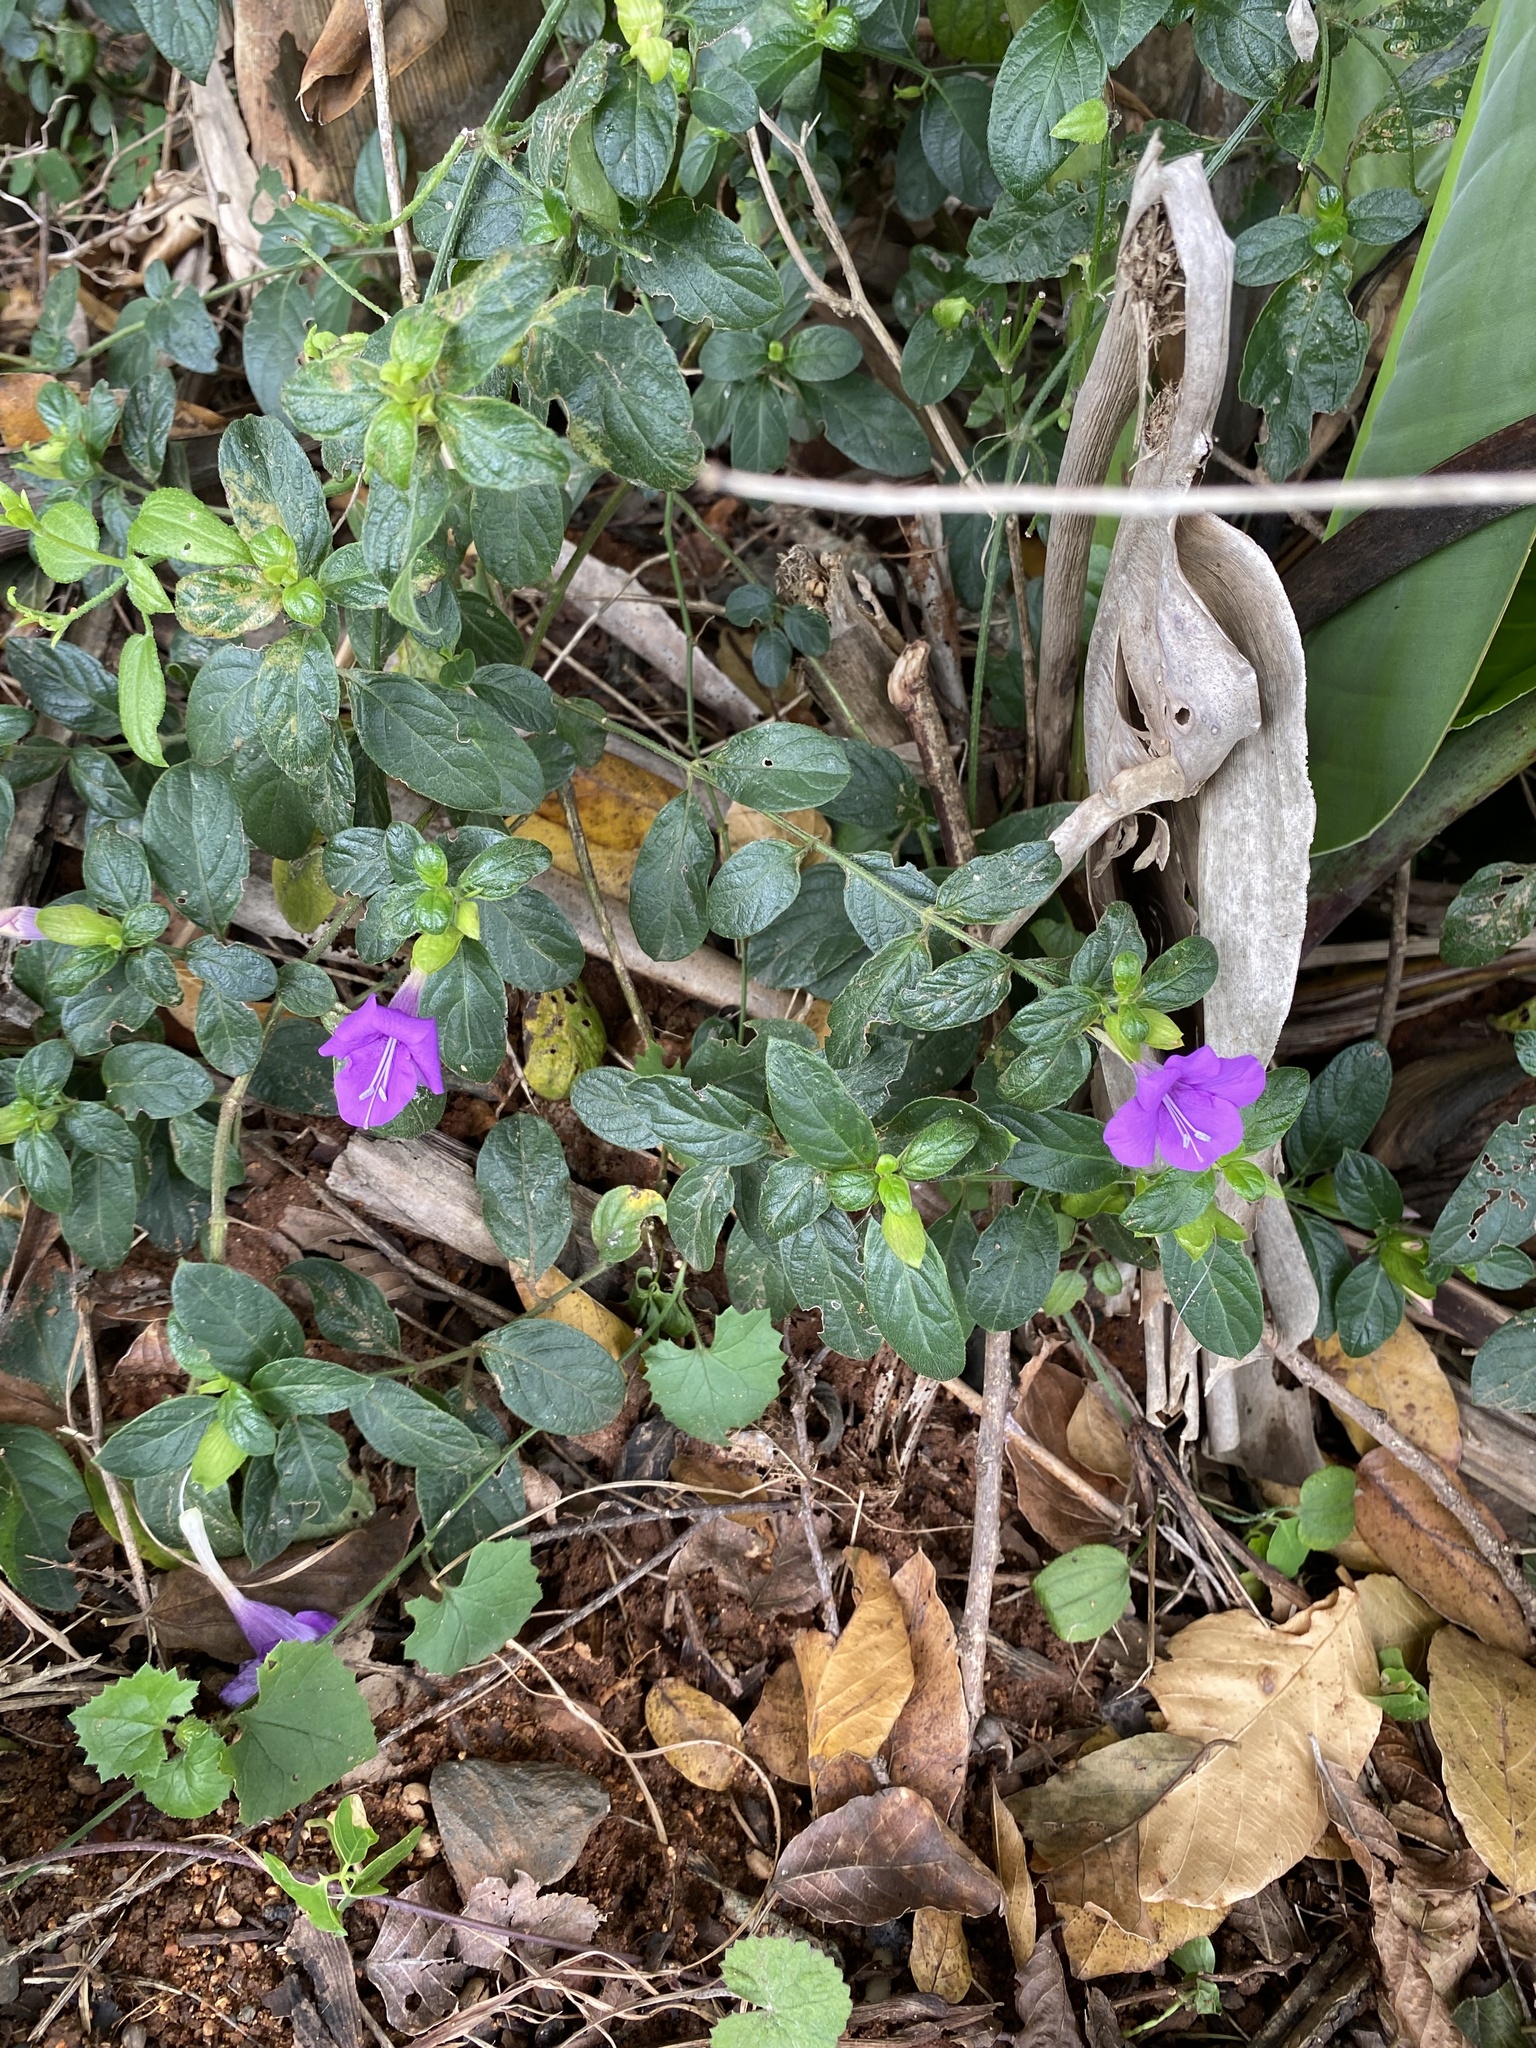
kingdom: Plantae
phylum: Tracheophyta
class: Magnoliopsida
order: Lamiales
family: Acanthaceae
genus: Barleria
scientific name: Barleria obtusa
